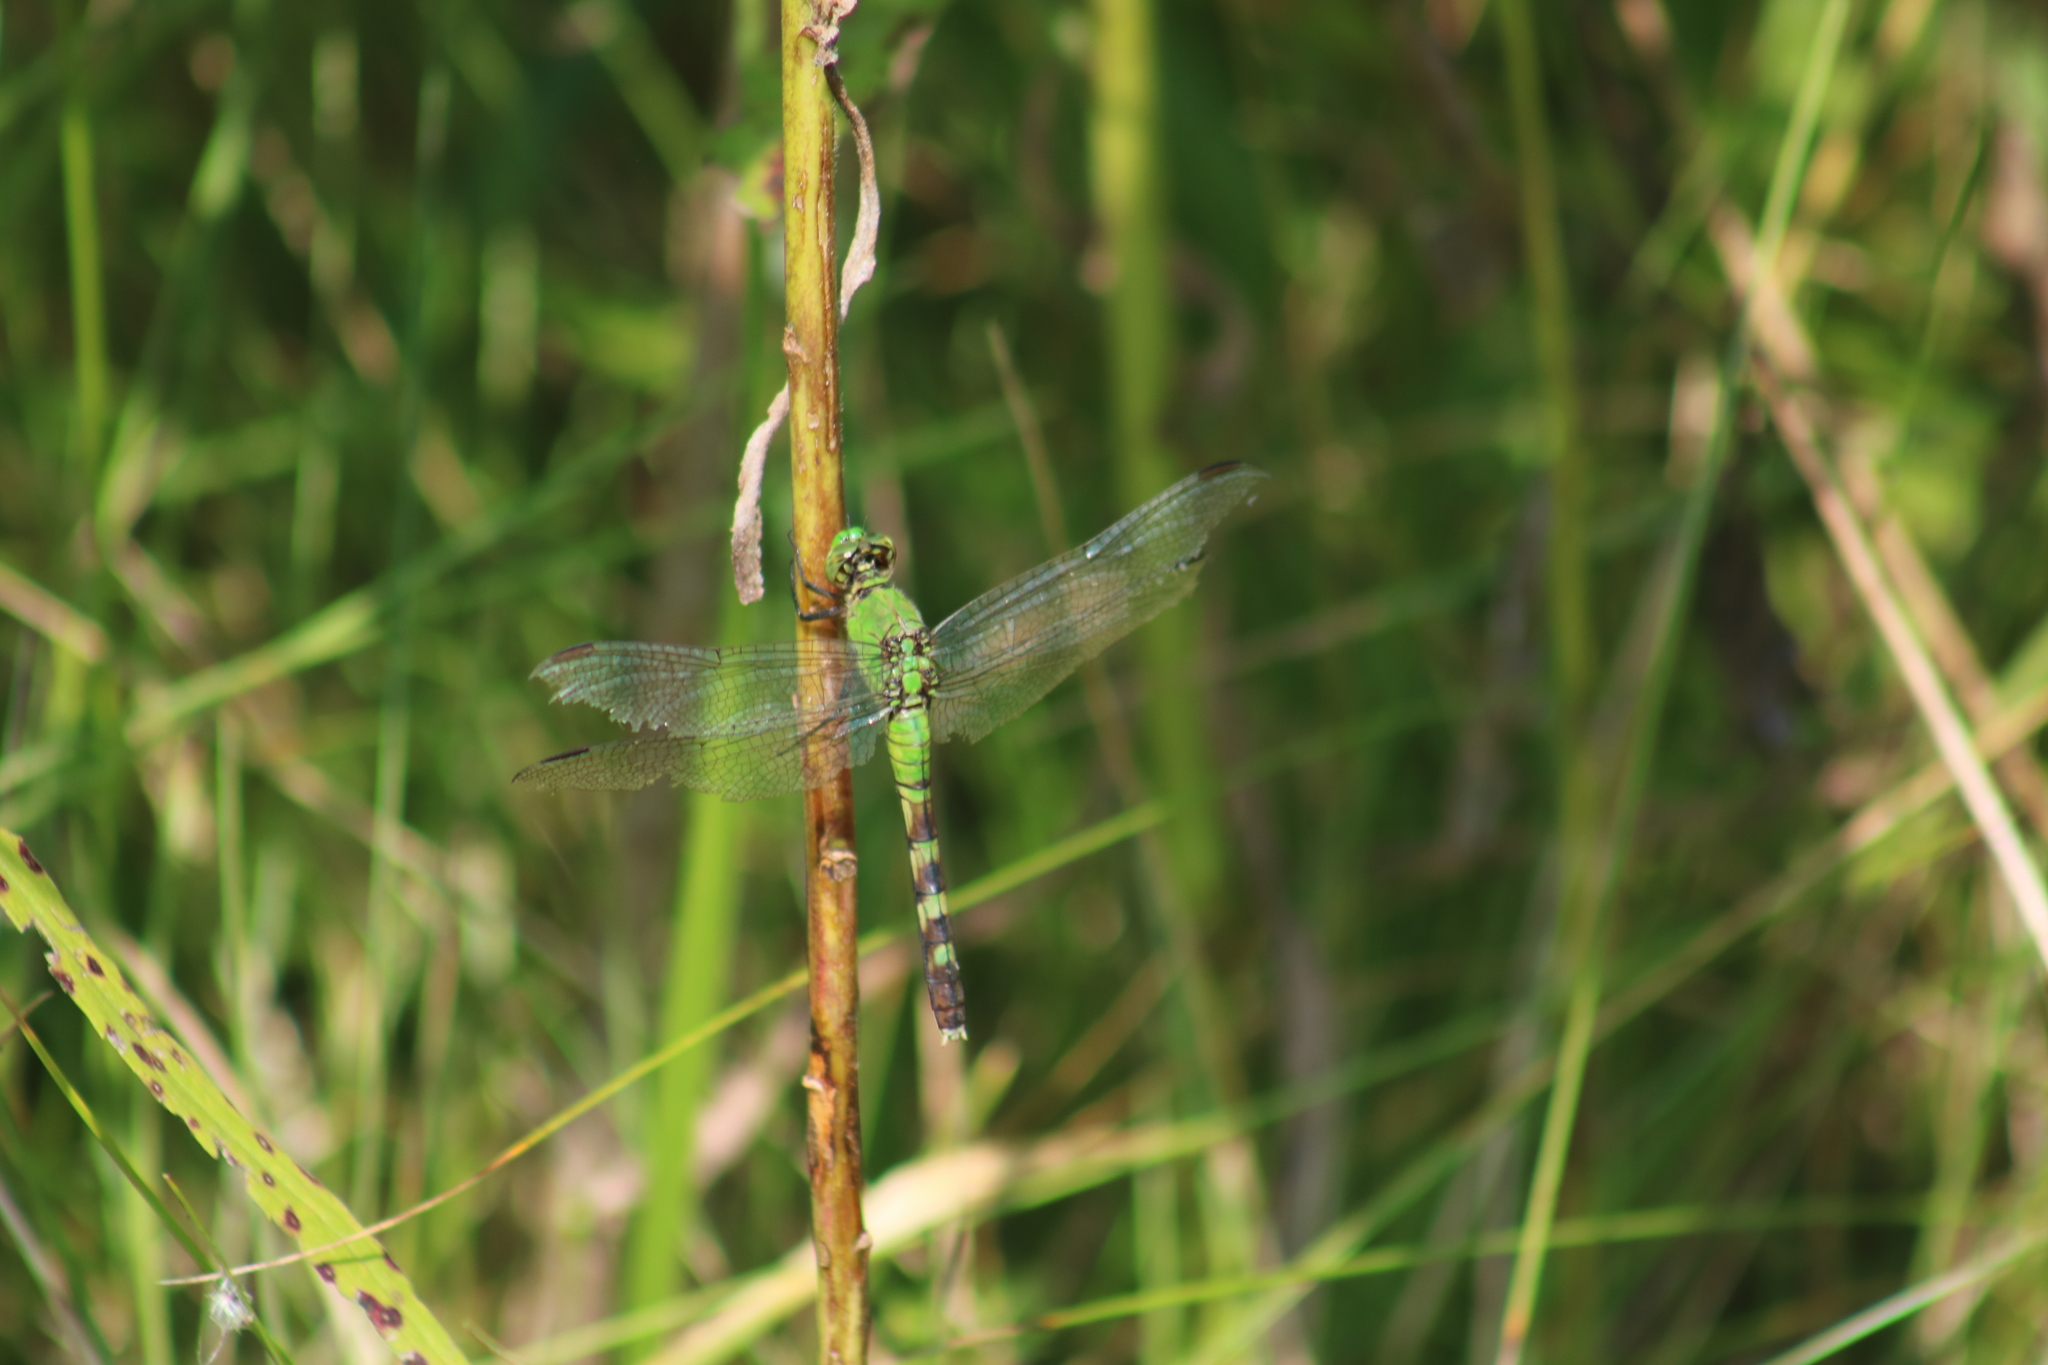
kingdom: Animalia
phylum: Arthropoda
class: Insecta
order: Odonata
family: Libellulidae
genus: Erythemis
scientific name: Erythemis simplicicollis
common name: Eastern pondhawk
